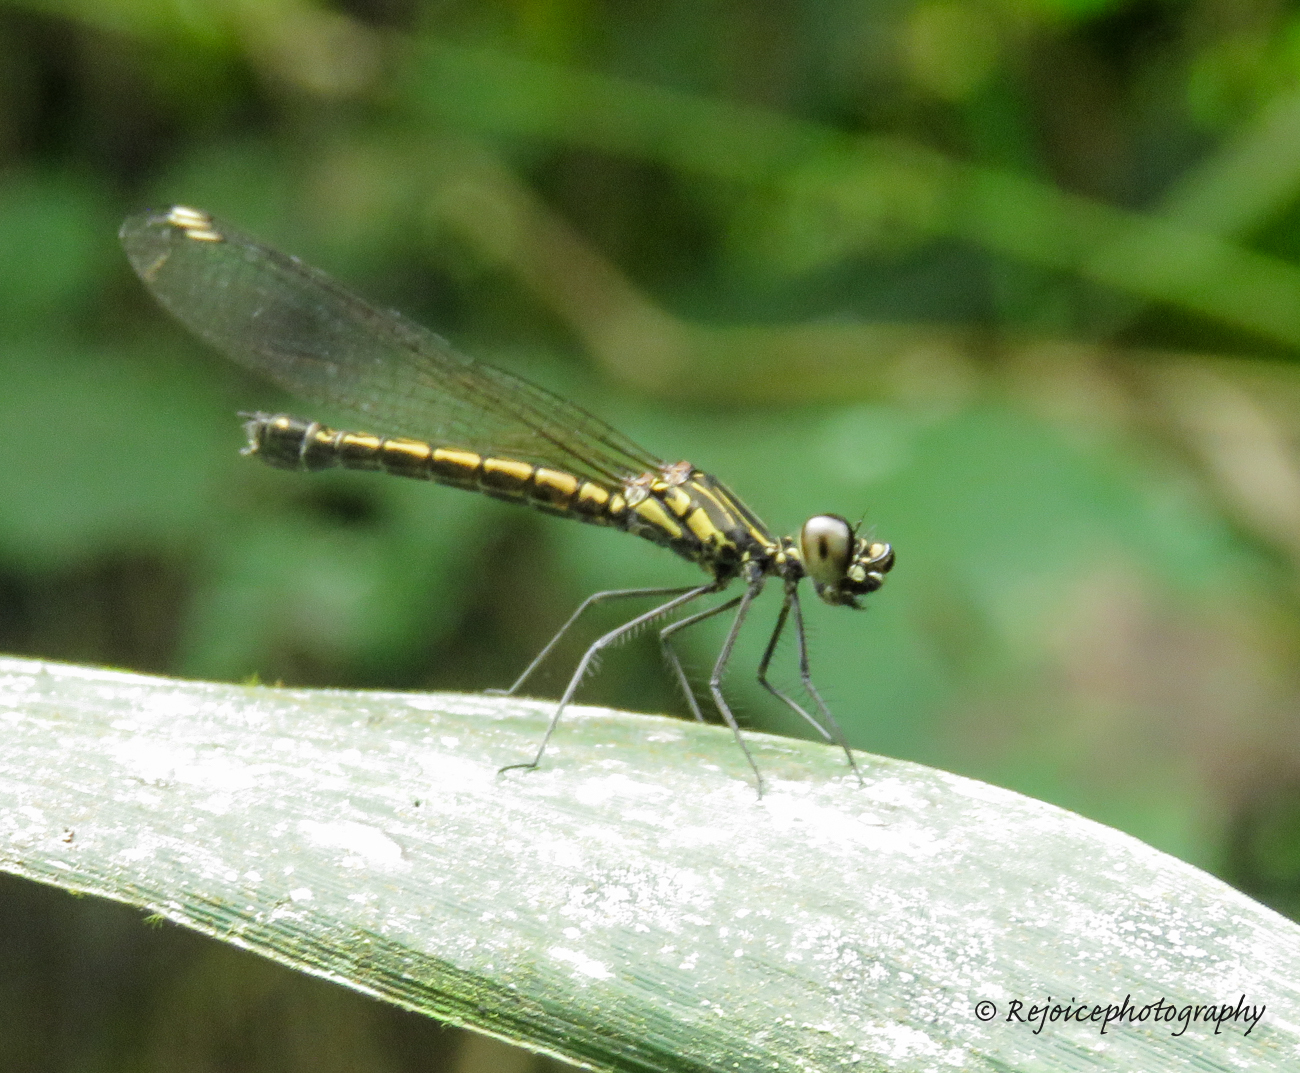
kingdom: Animalia
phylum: Arthropoda
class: Insecta
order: Odonata
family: Chlorocyphidae
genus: Libellago
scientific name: Libellago lineata
